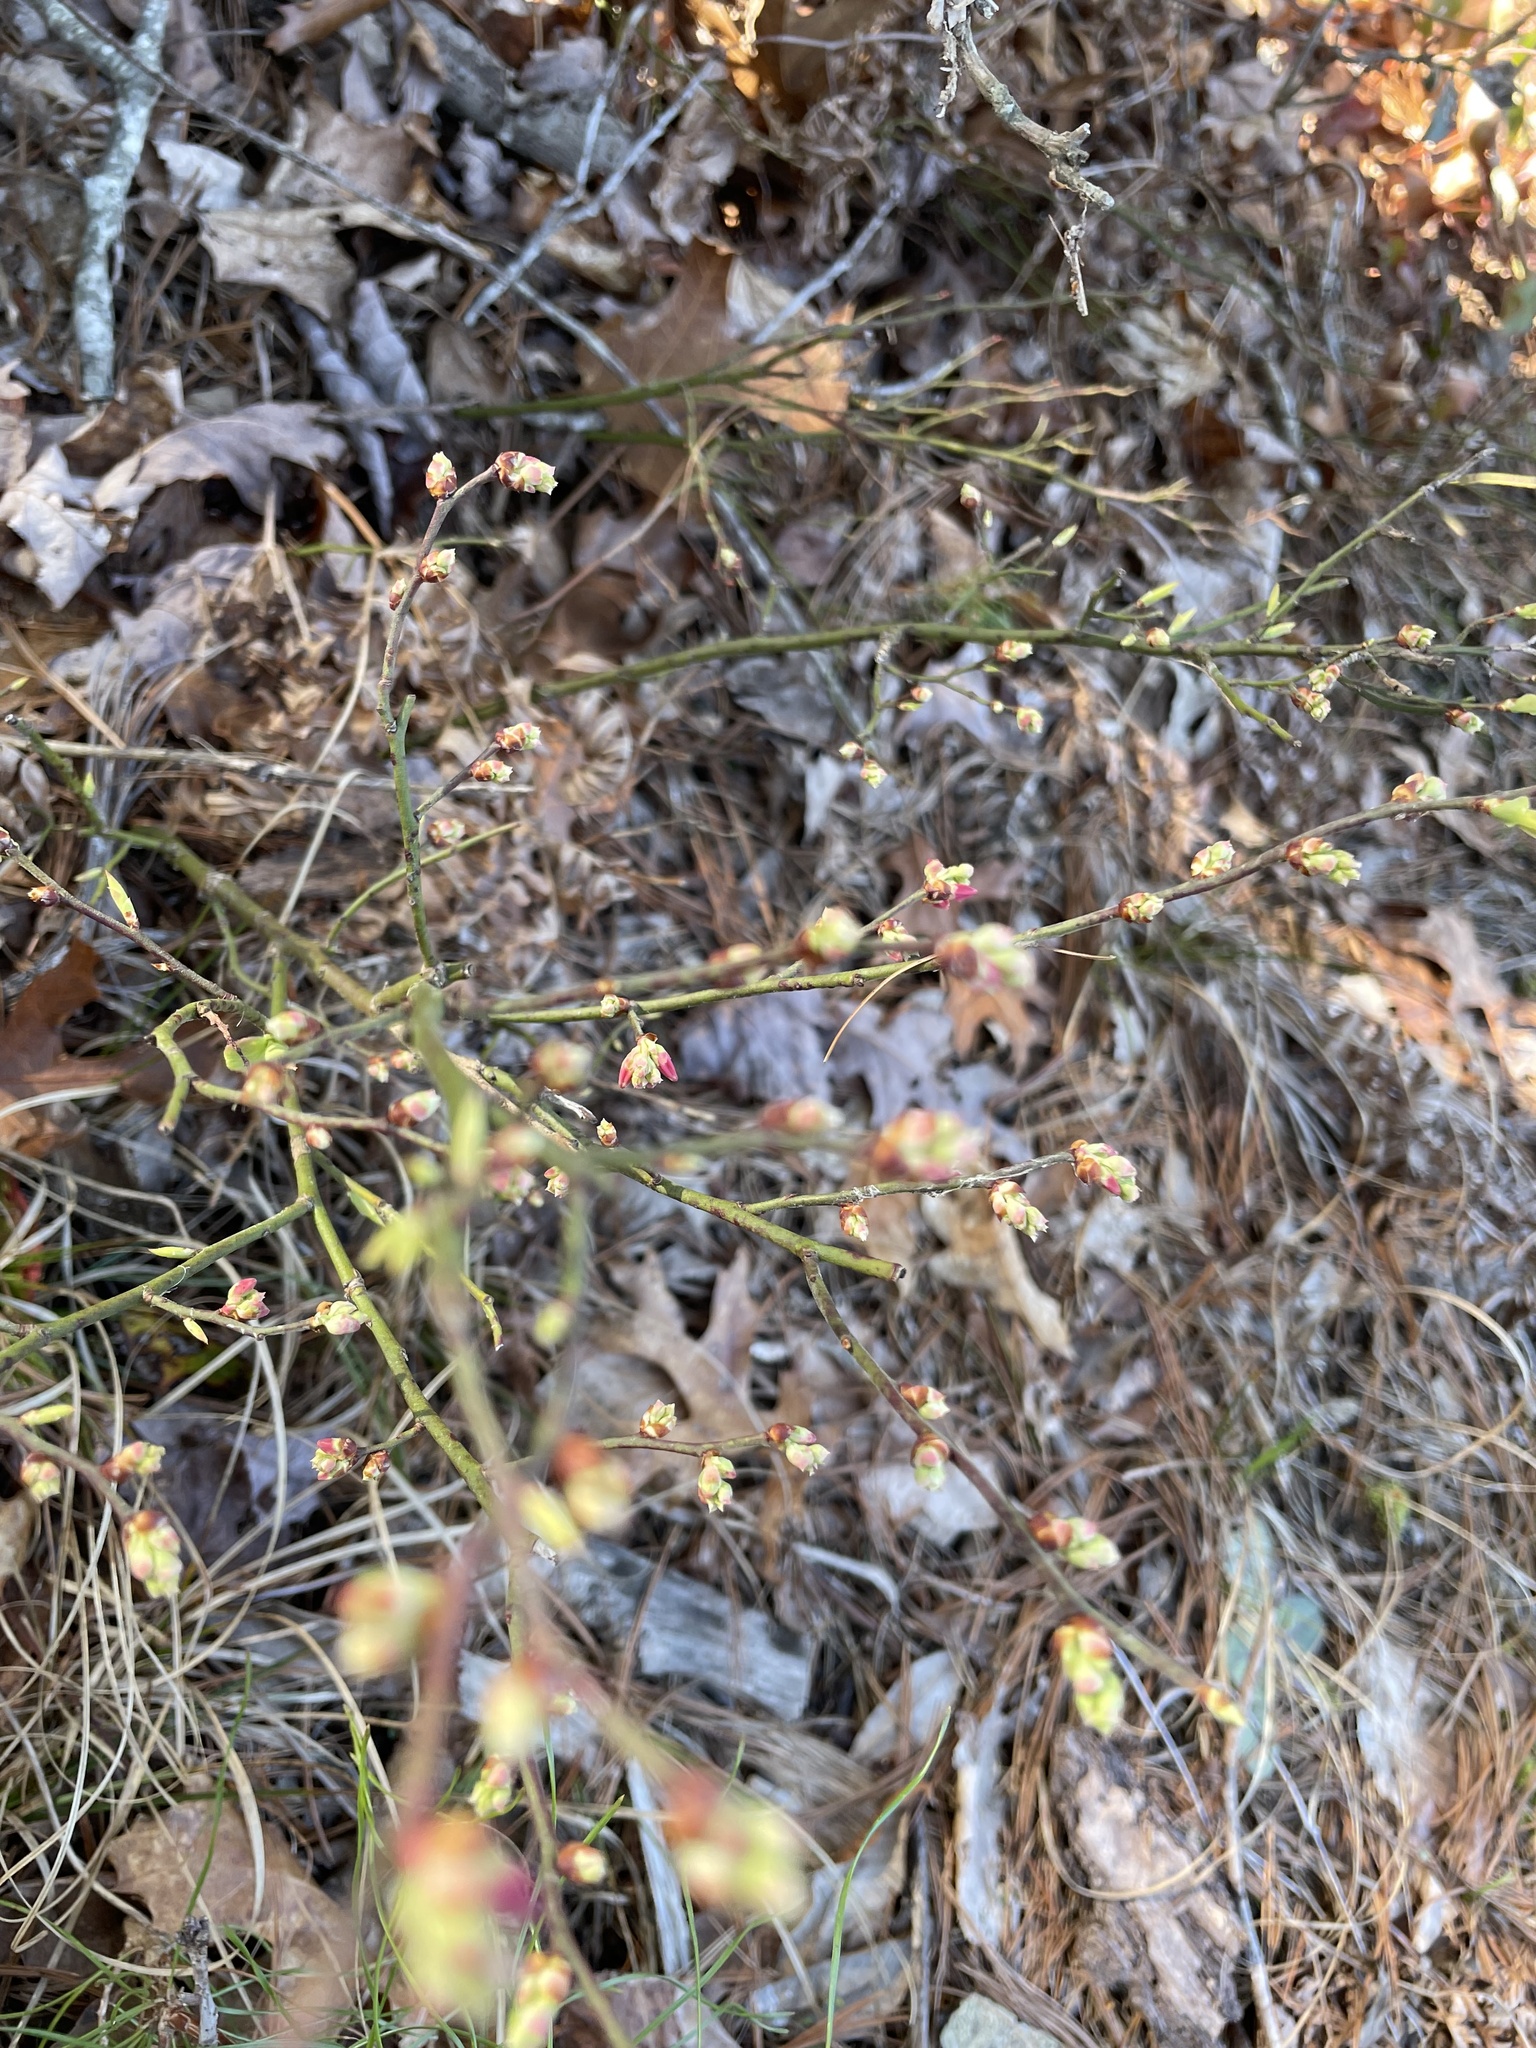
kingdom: Plantae
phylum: Tracheophyta
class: Magnoliopsida
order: Ericales
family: Ericaceae
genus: Vaccinium
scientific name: Vaccinium pallidum
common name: Blue ridge blueberry
